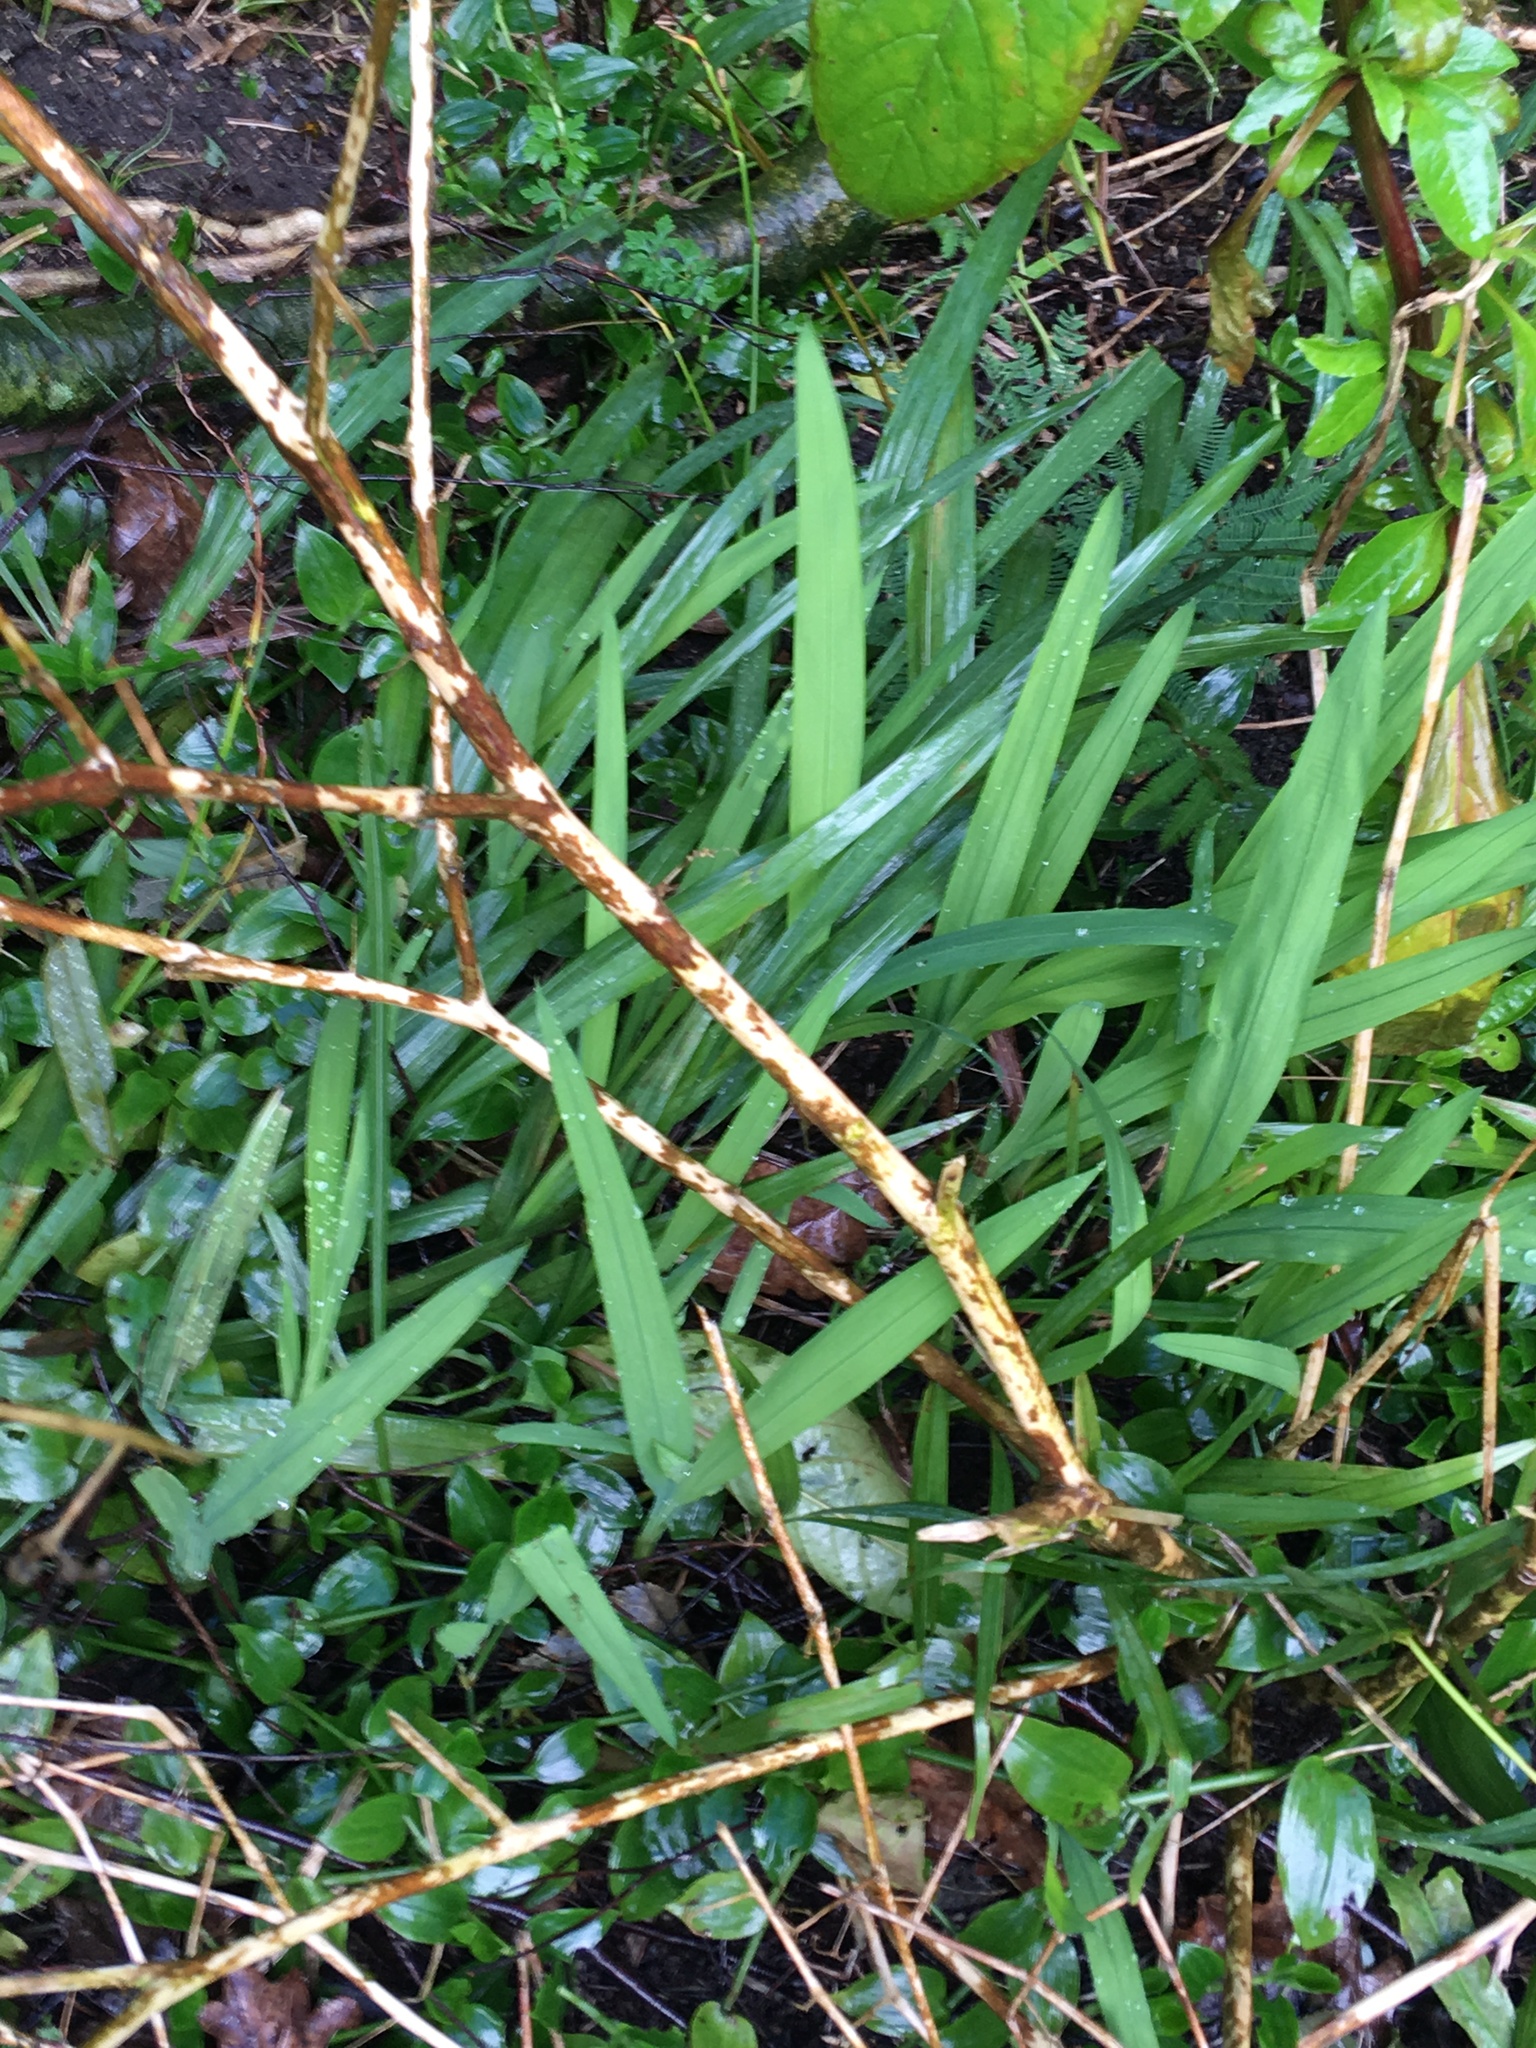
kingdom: Plantae
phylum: Tracheophyta
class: Liliopsida
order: Asparagales
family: Iridaceae
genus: Crocosmia
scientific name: Crocosmia crocosmiiflora
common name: Montbretia
